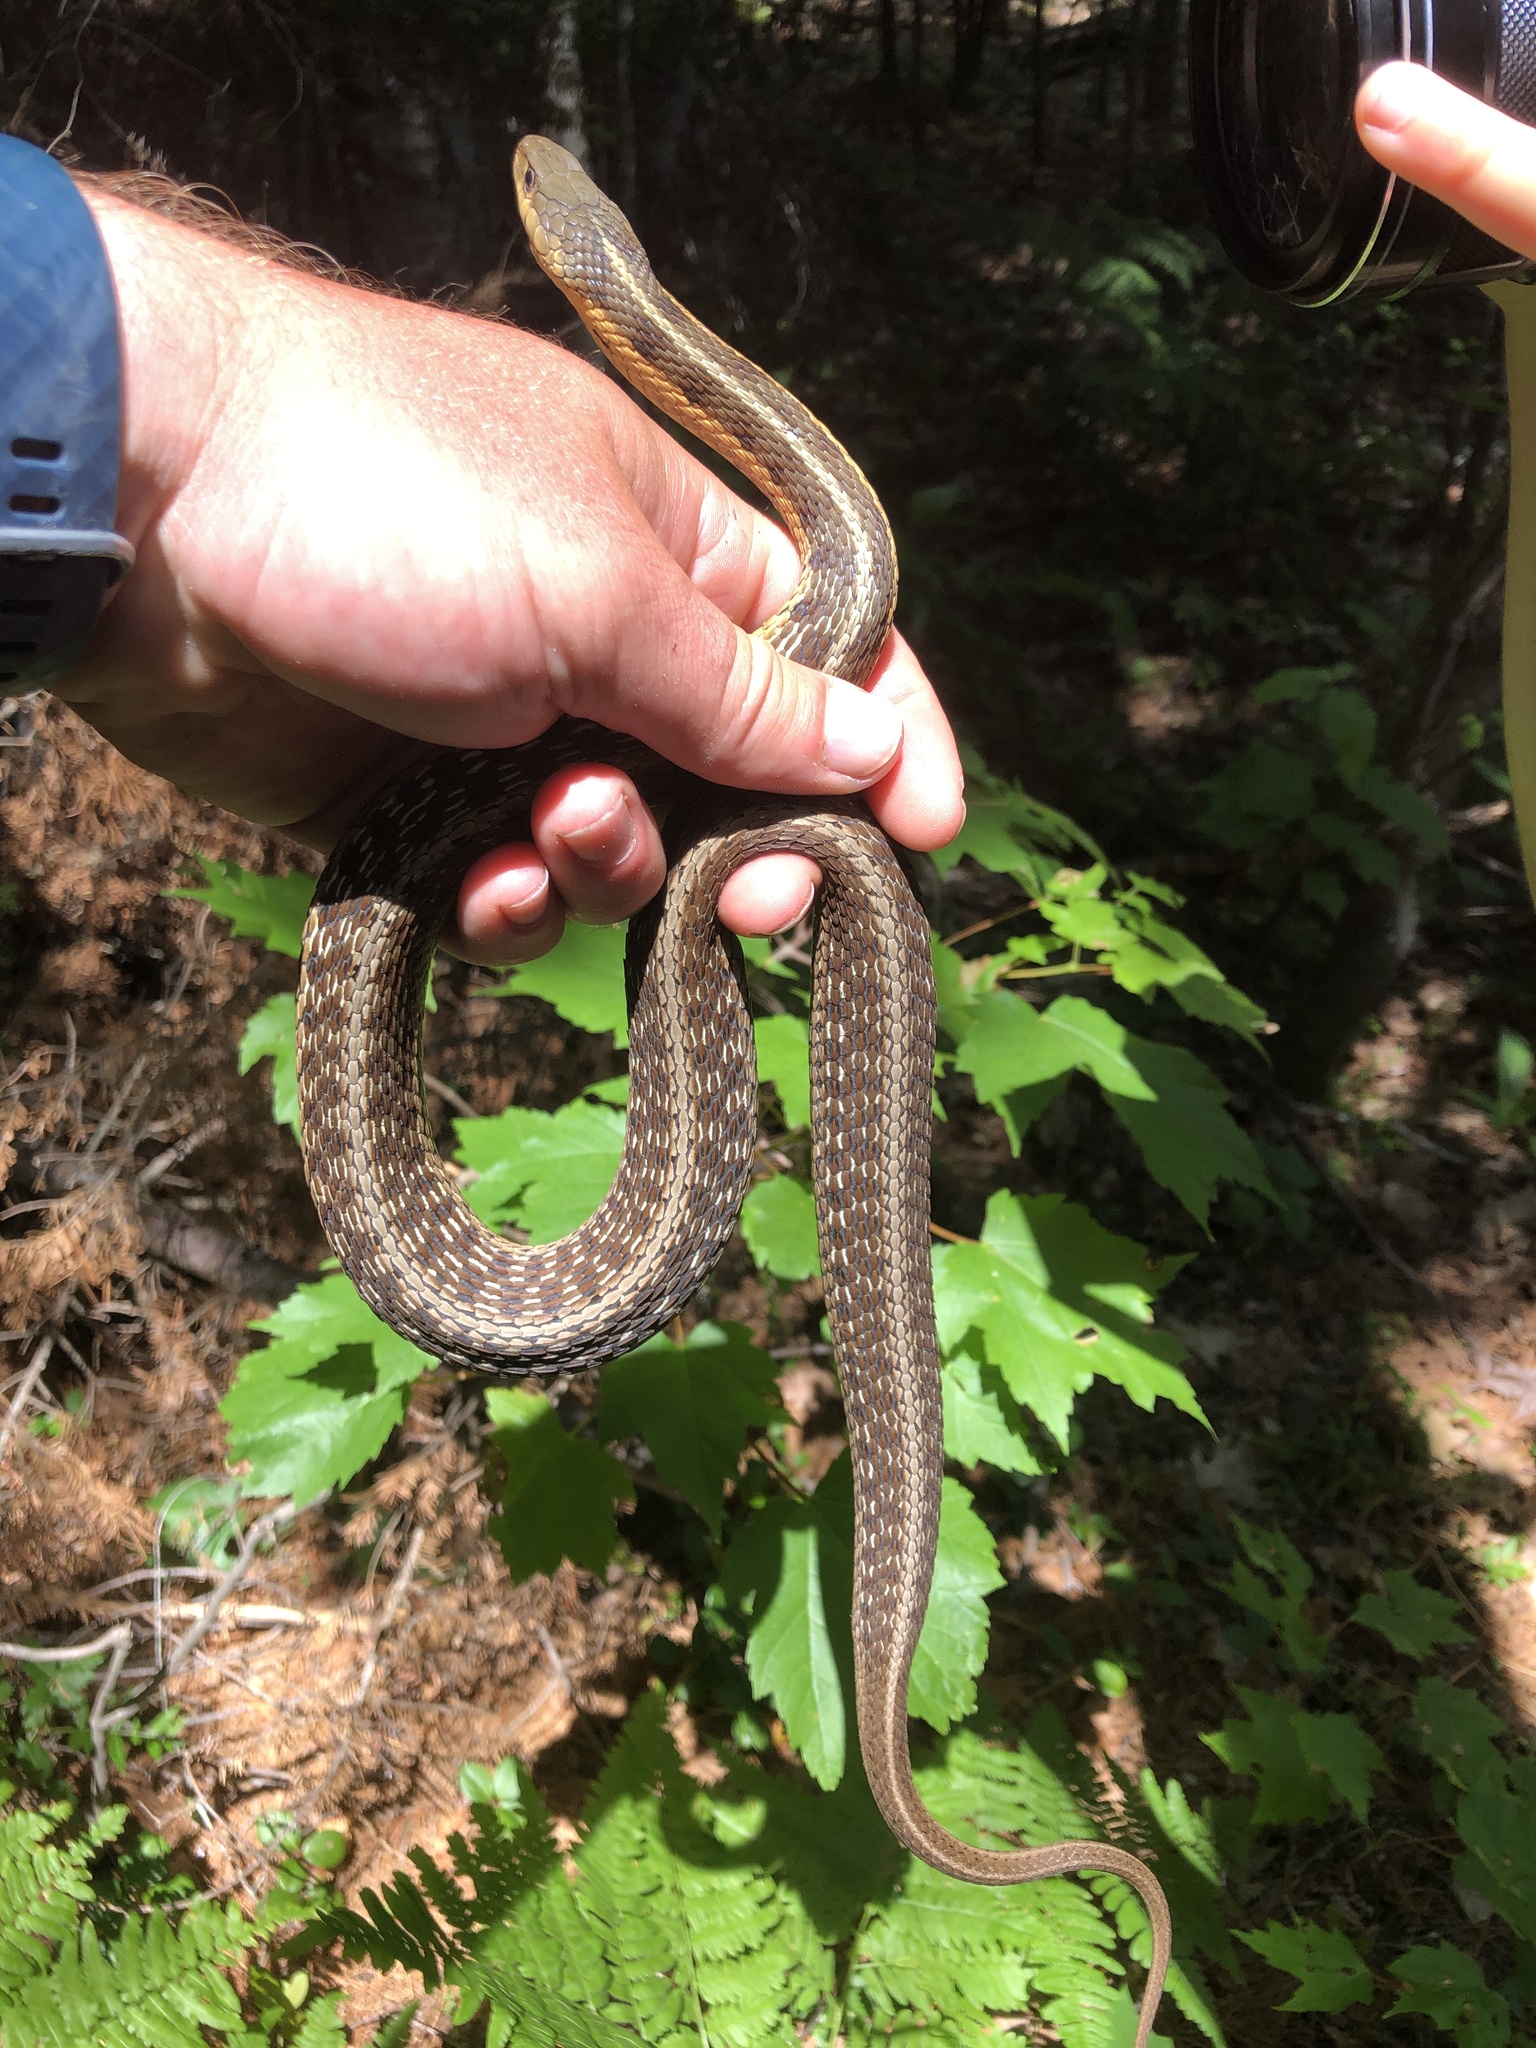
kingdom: Animalia
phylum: Chordata
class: Squamata
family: Colubridae
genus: Thamnophis
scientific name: Thamnophis sirtalis
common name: Common garter snake
